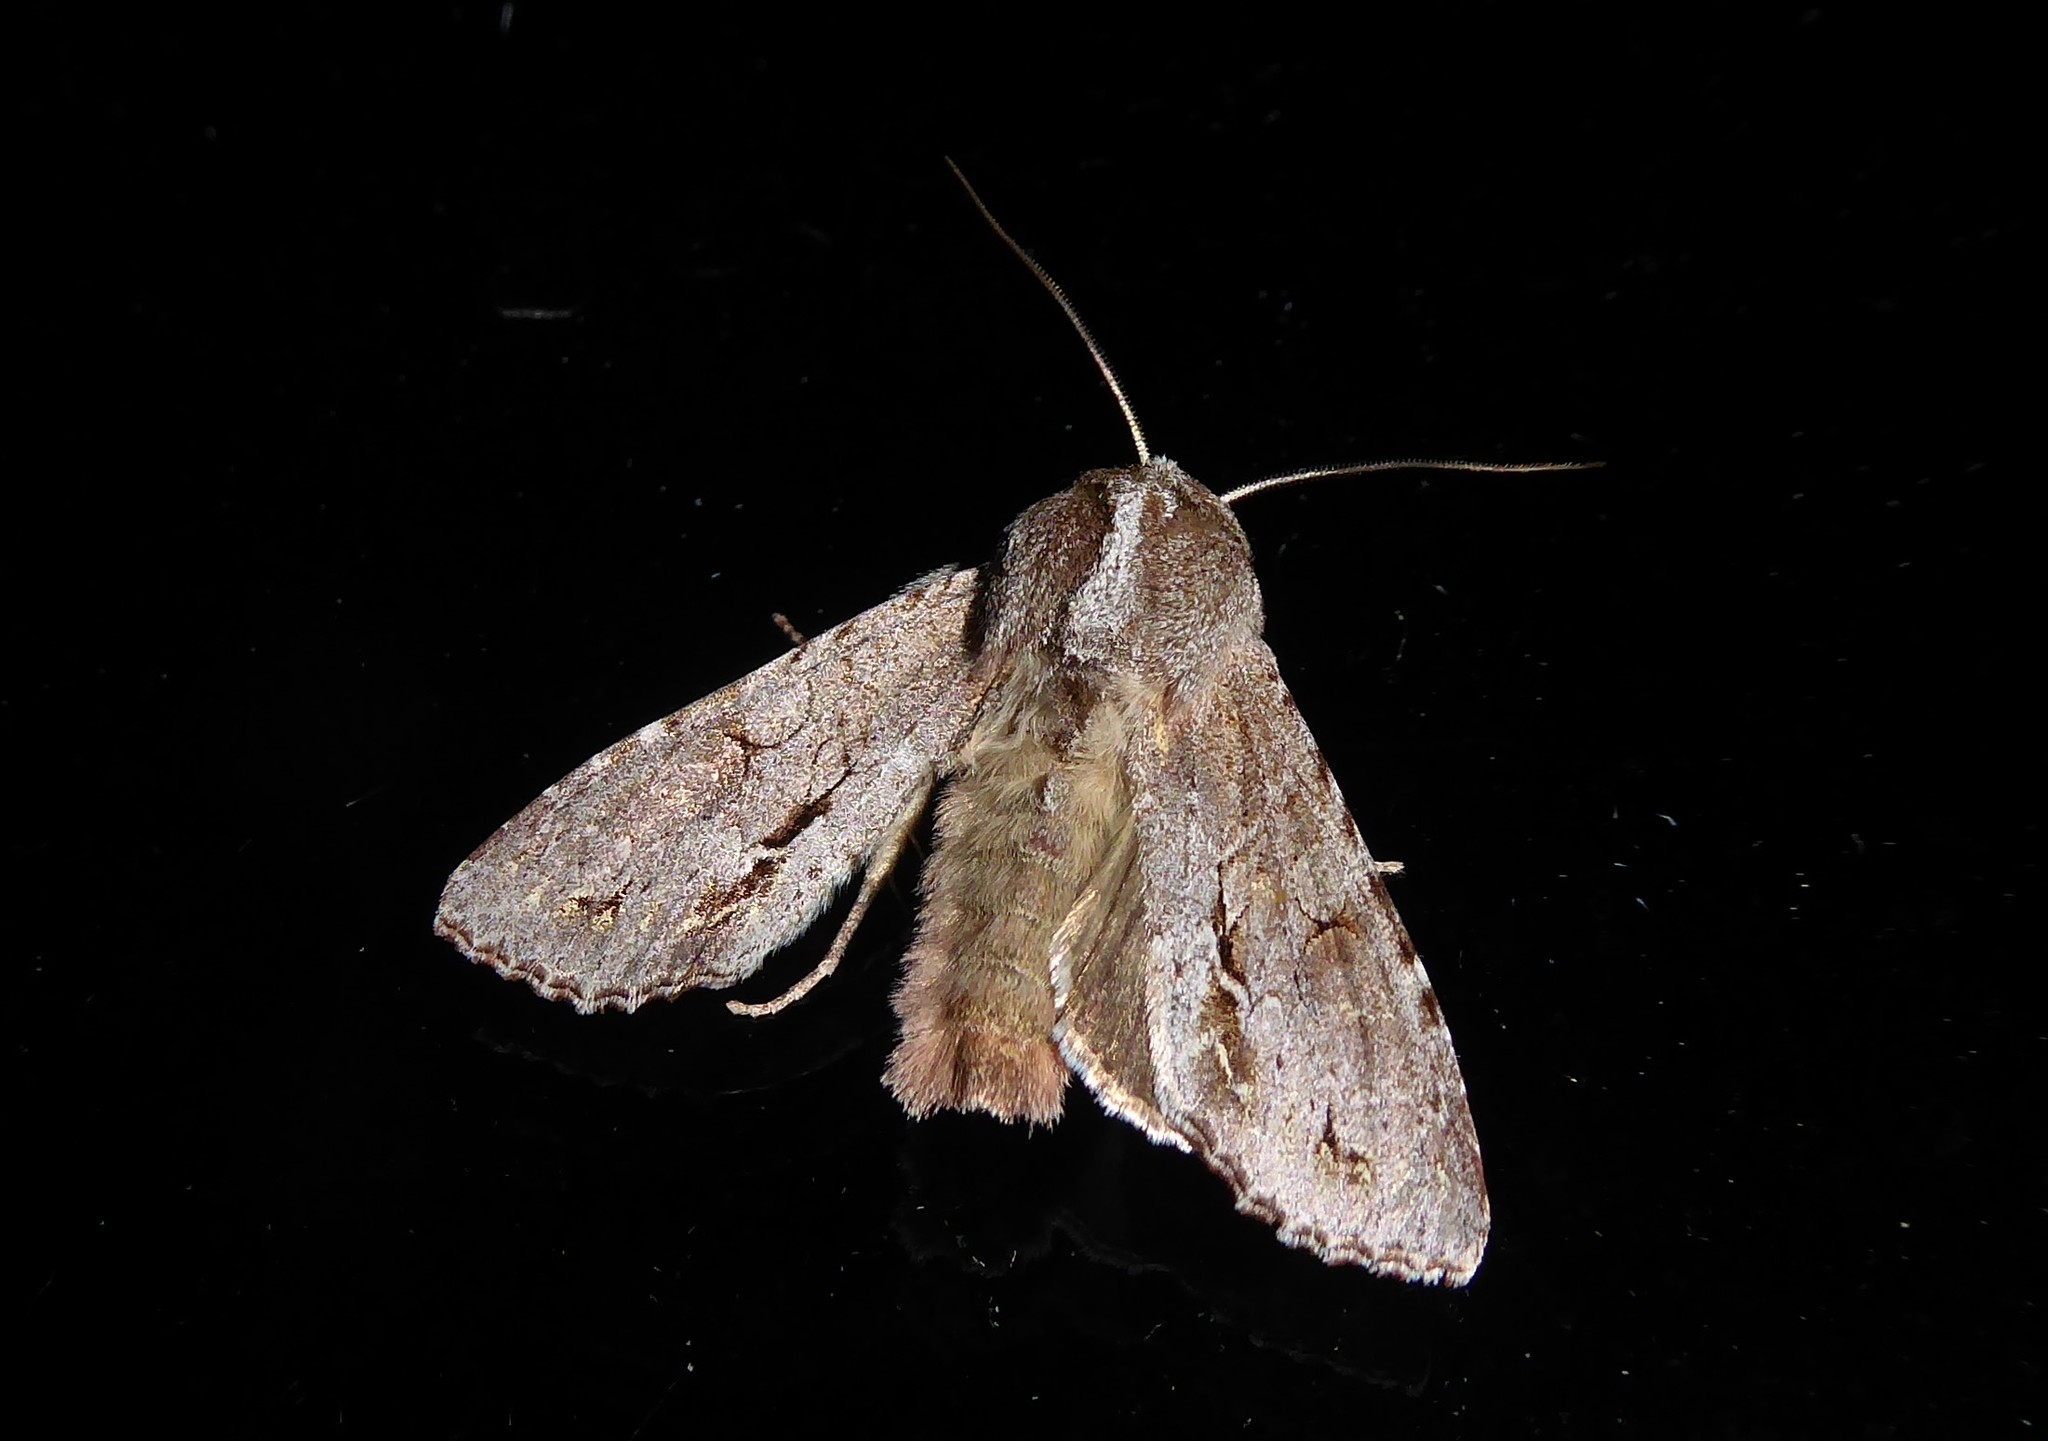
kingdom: Animalia
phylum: Arthropoda
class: Insecta
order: Lepidoptera
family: Noctuidae
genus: Ichneutica
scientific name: Ichneutica
